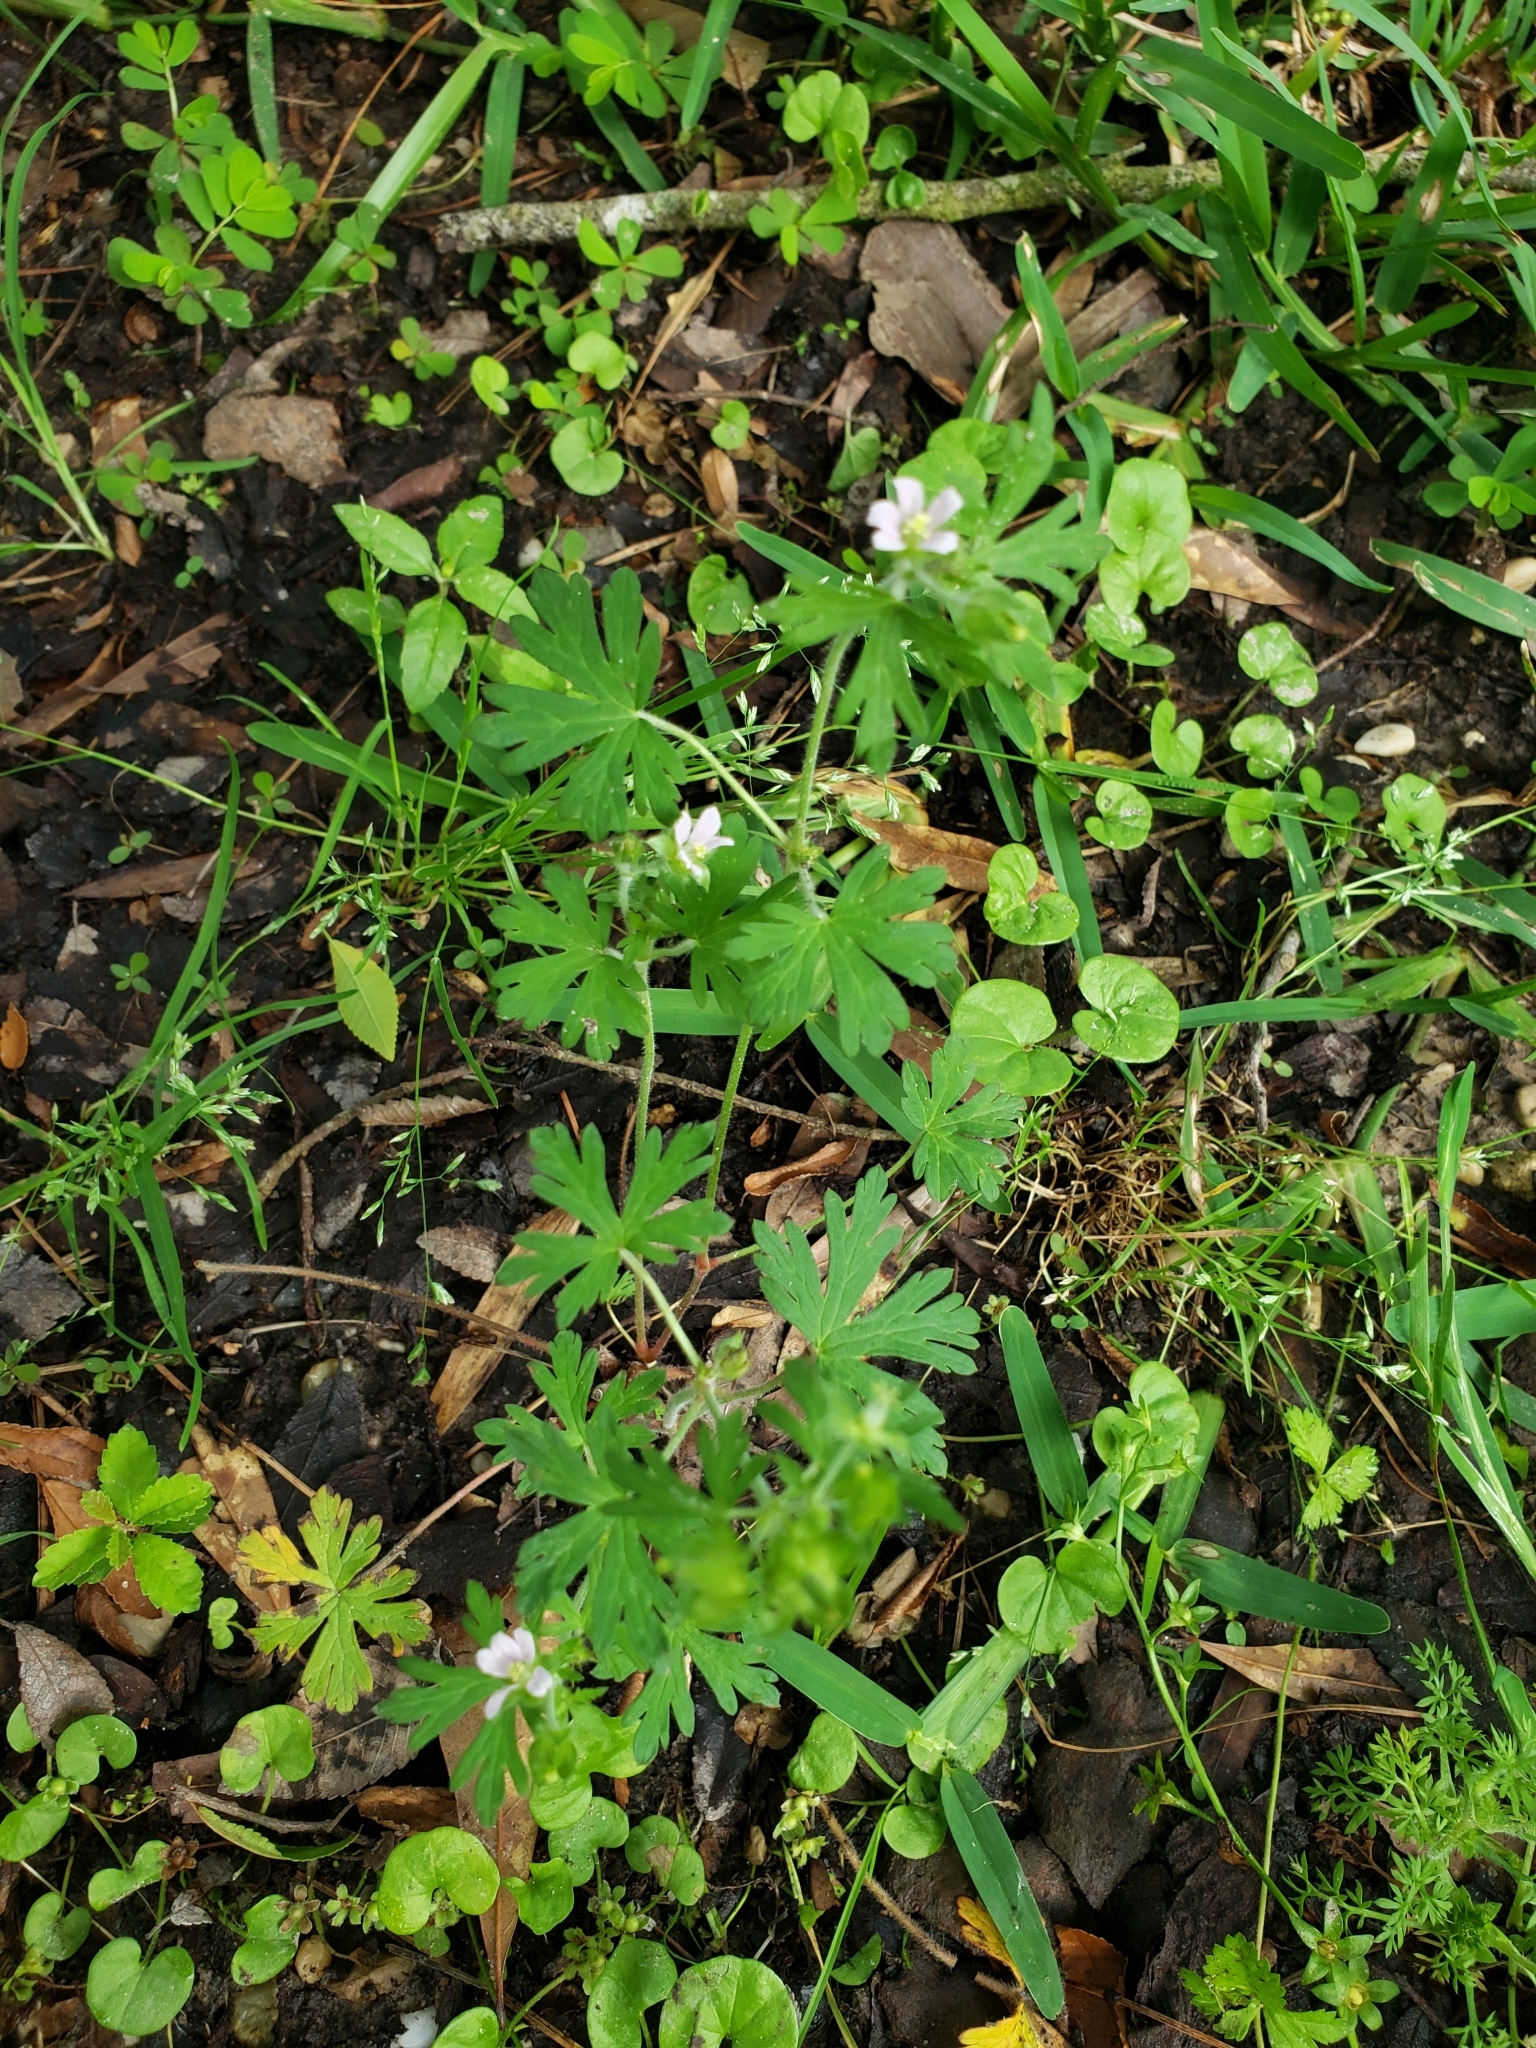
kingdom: Plantae
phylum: Tracheophyta
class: Magnoliopsida
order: Geraniales
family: Geraniaceae
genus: Geranium
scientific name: Geranium carolinianum
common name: Carolina crane's-bill
